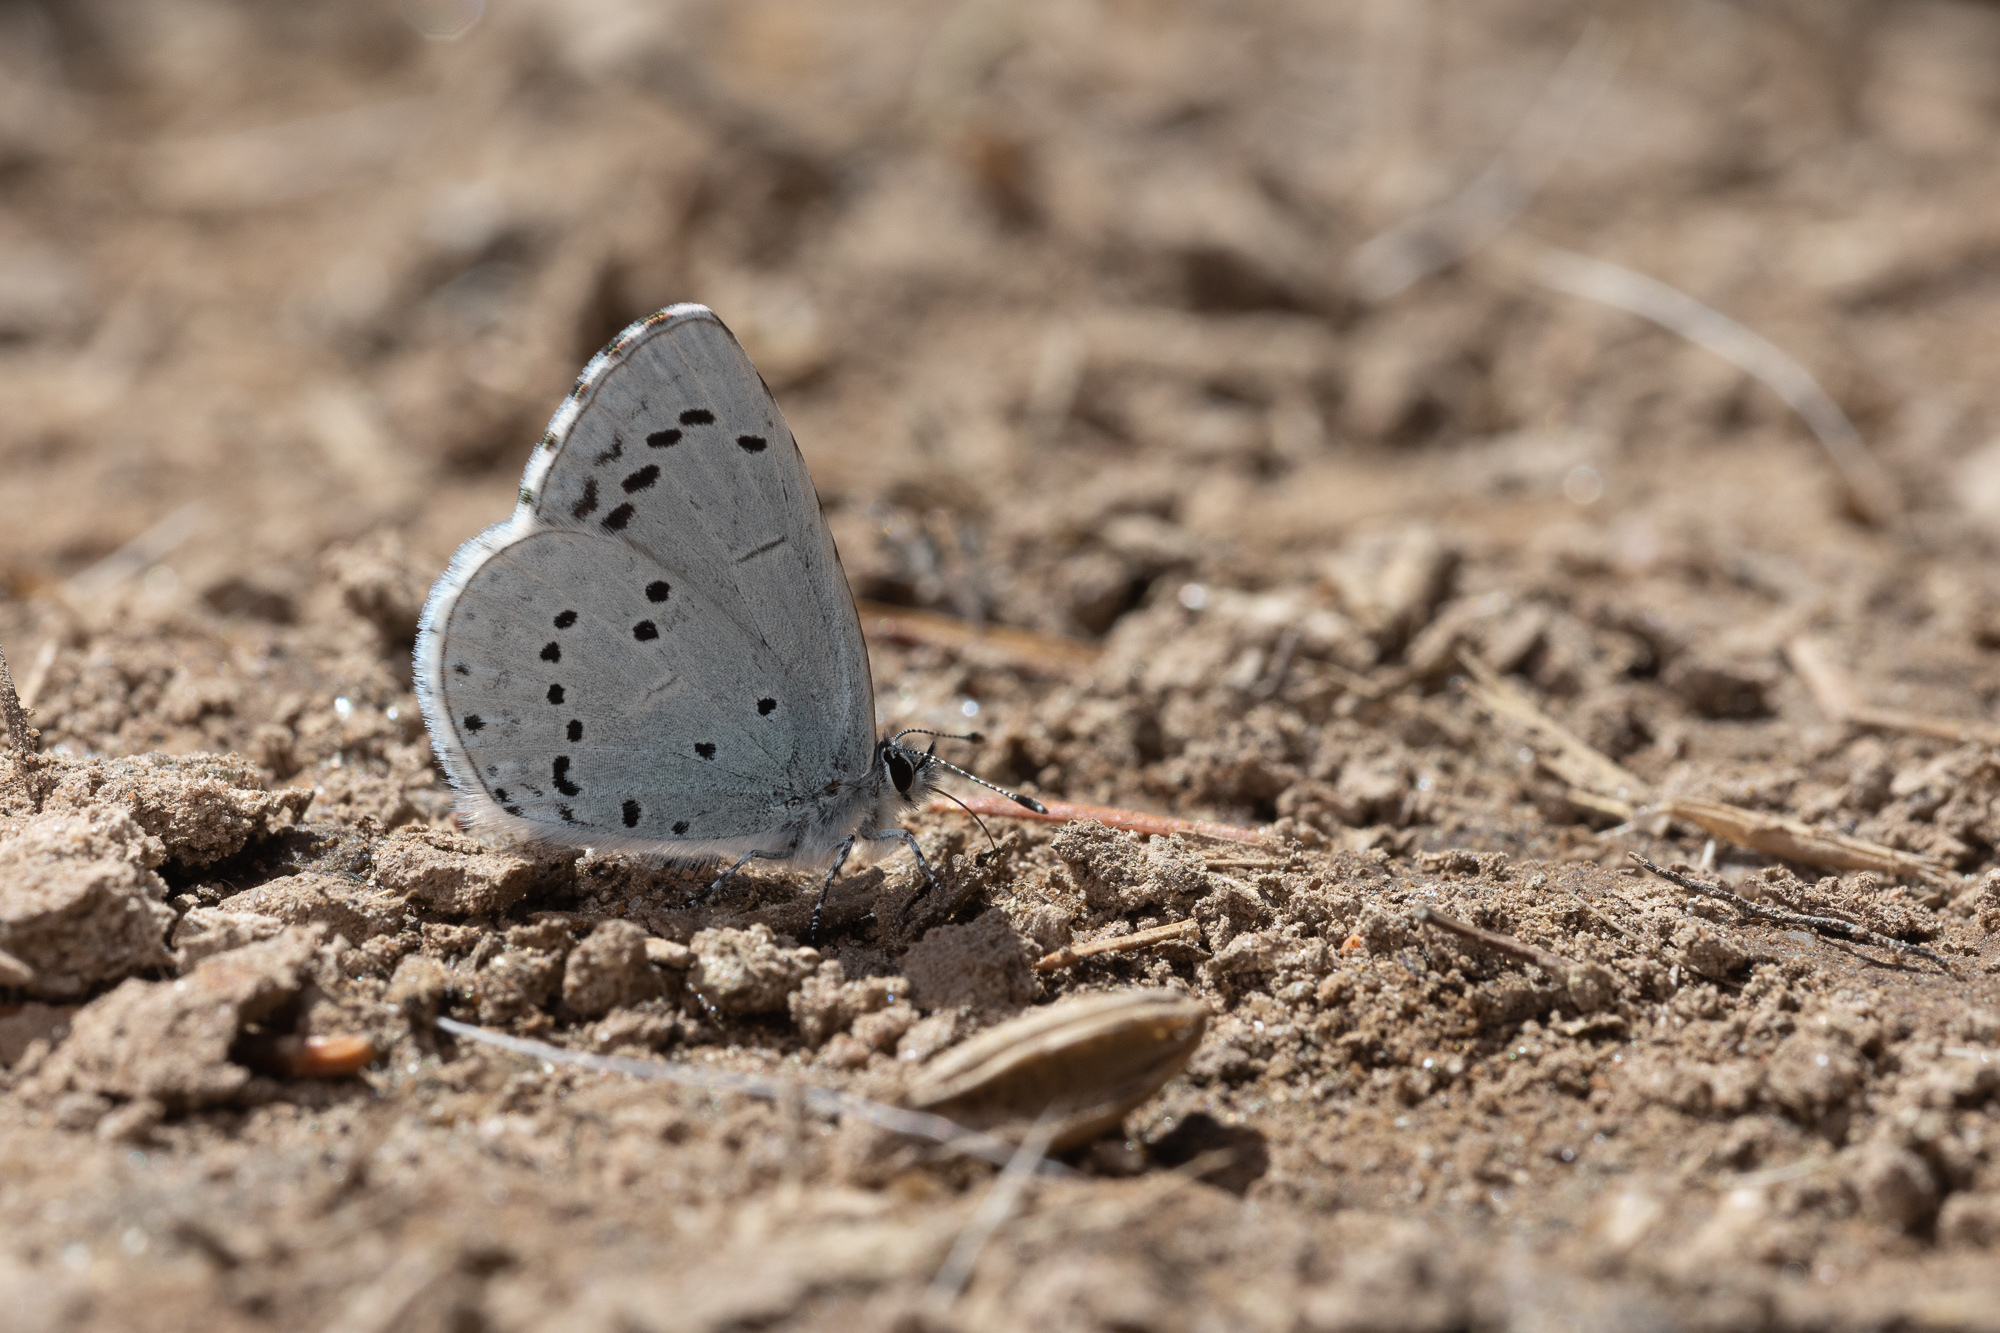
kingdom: Animalia
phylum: Arthropoda
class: Insecta
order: Lepidoptera
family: Lycaenidae
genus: Celastrina
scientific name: Celastrina argiolus
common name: Holly blue
